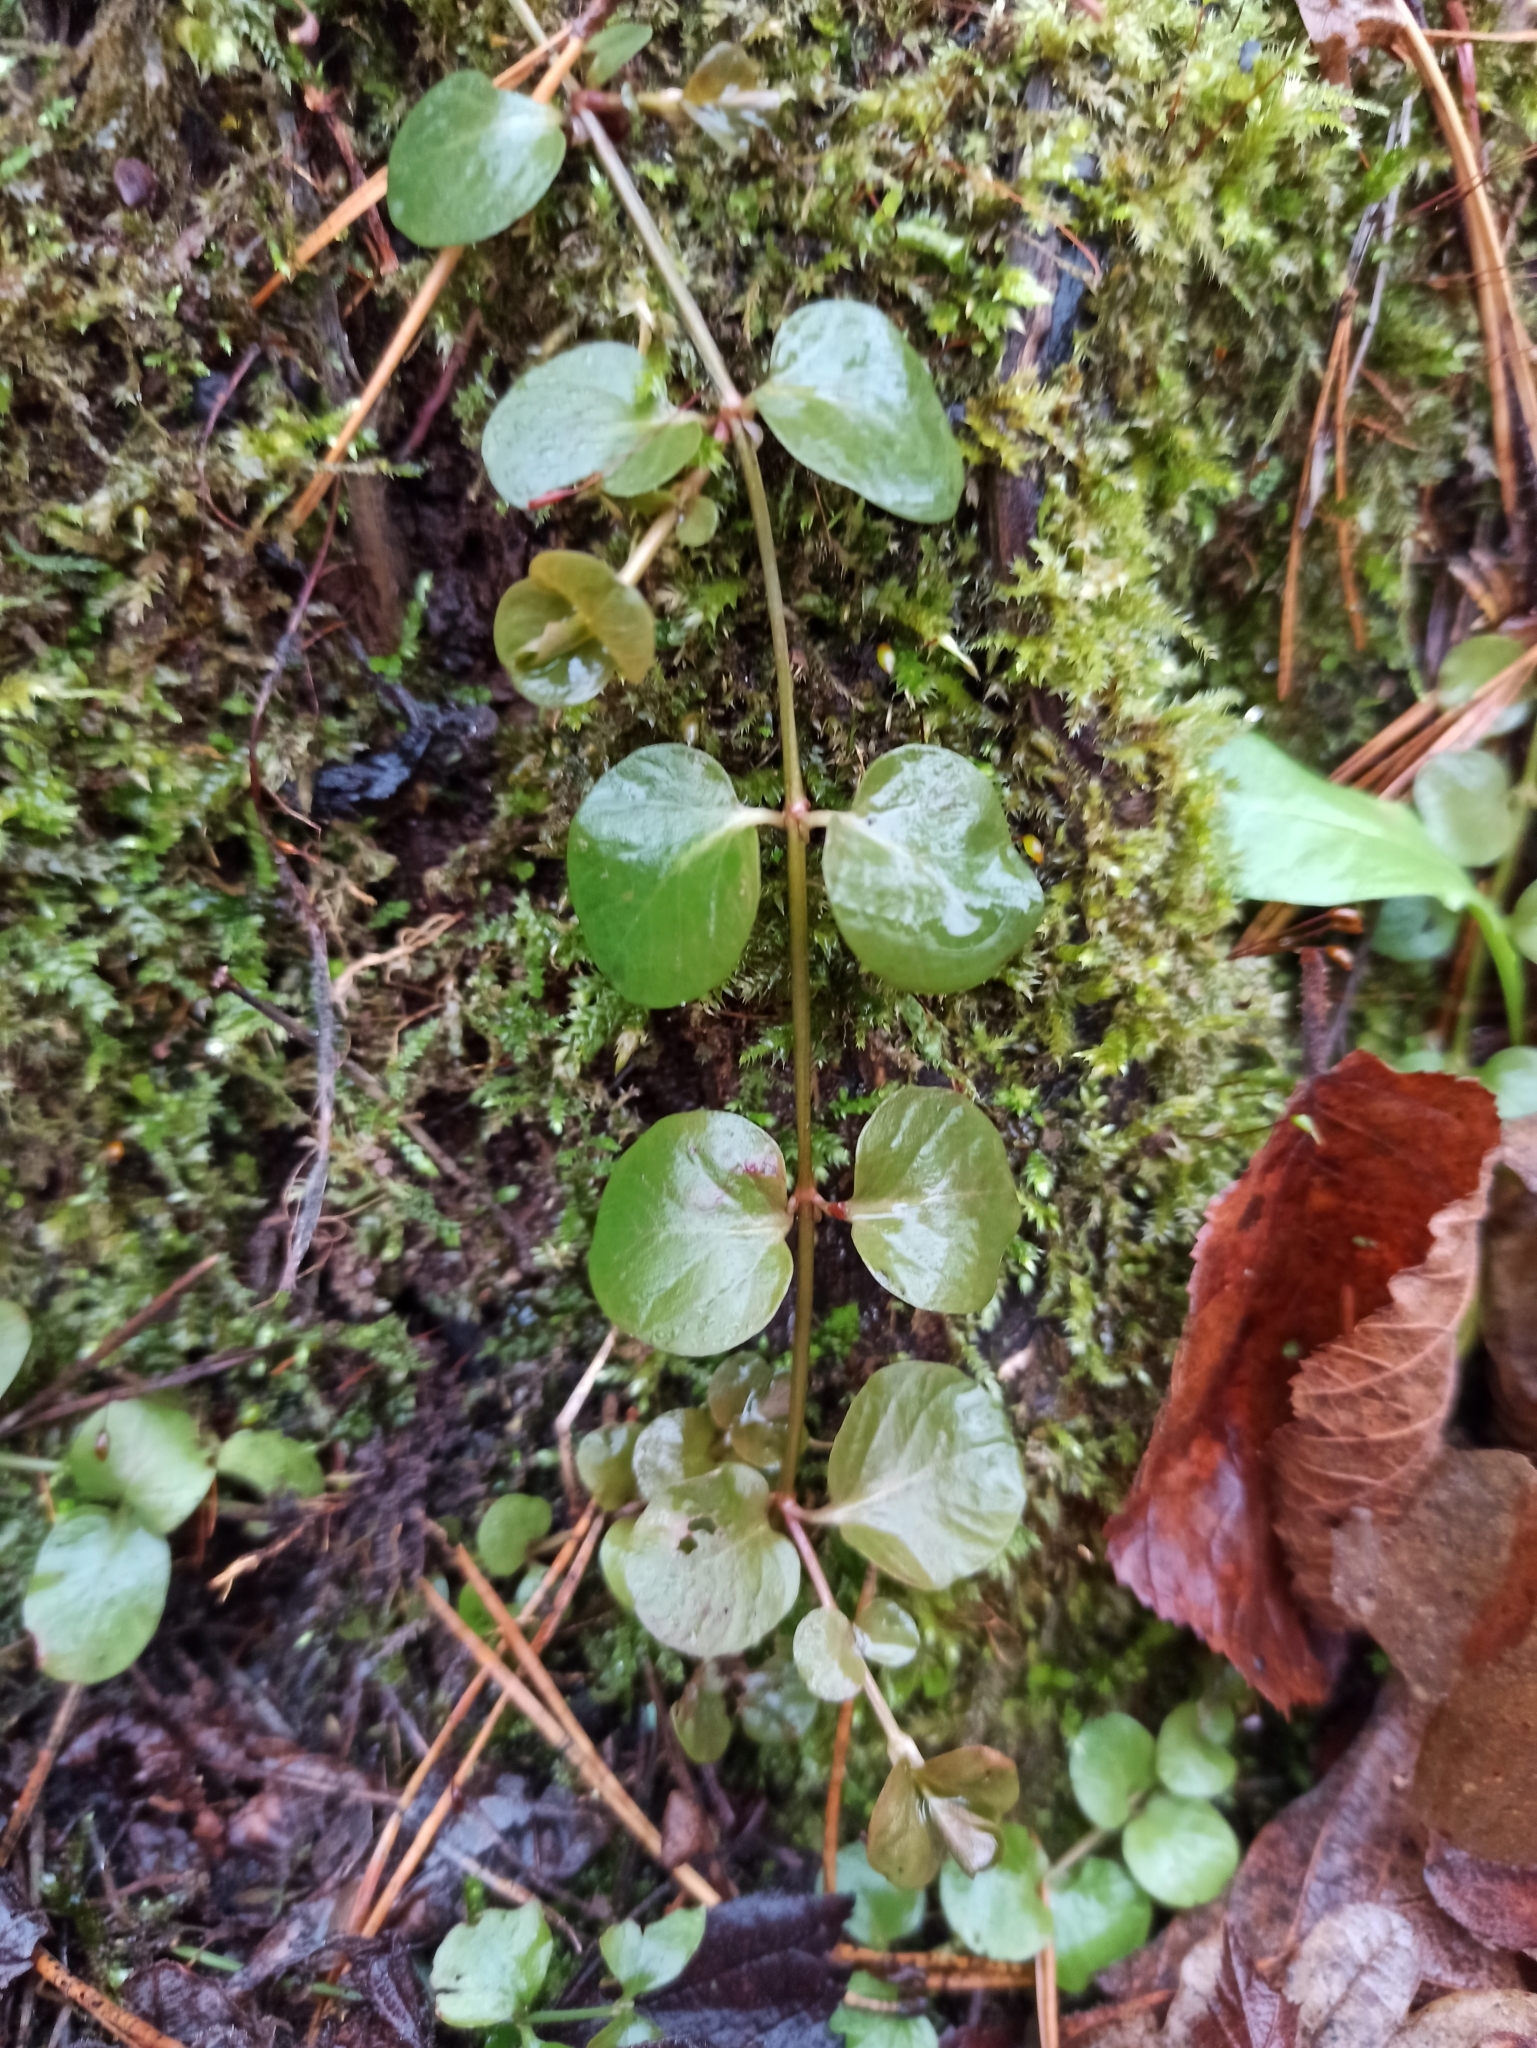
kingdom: Plantae
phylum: Tracheophyta
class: Magnoliopsida
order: Ericales
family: Primulaceae
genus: Lysimachia
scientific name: Lysimachia nummularia
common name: Moneywort
